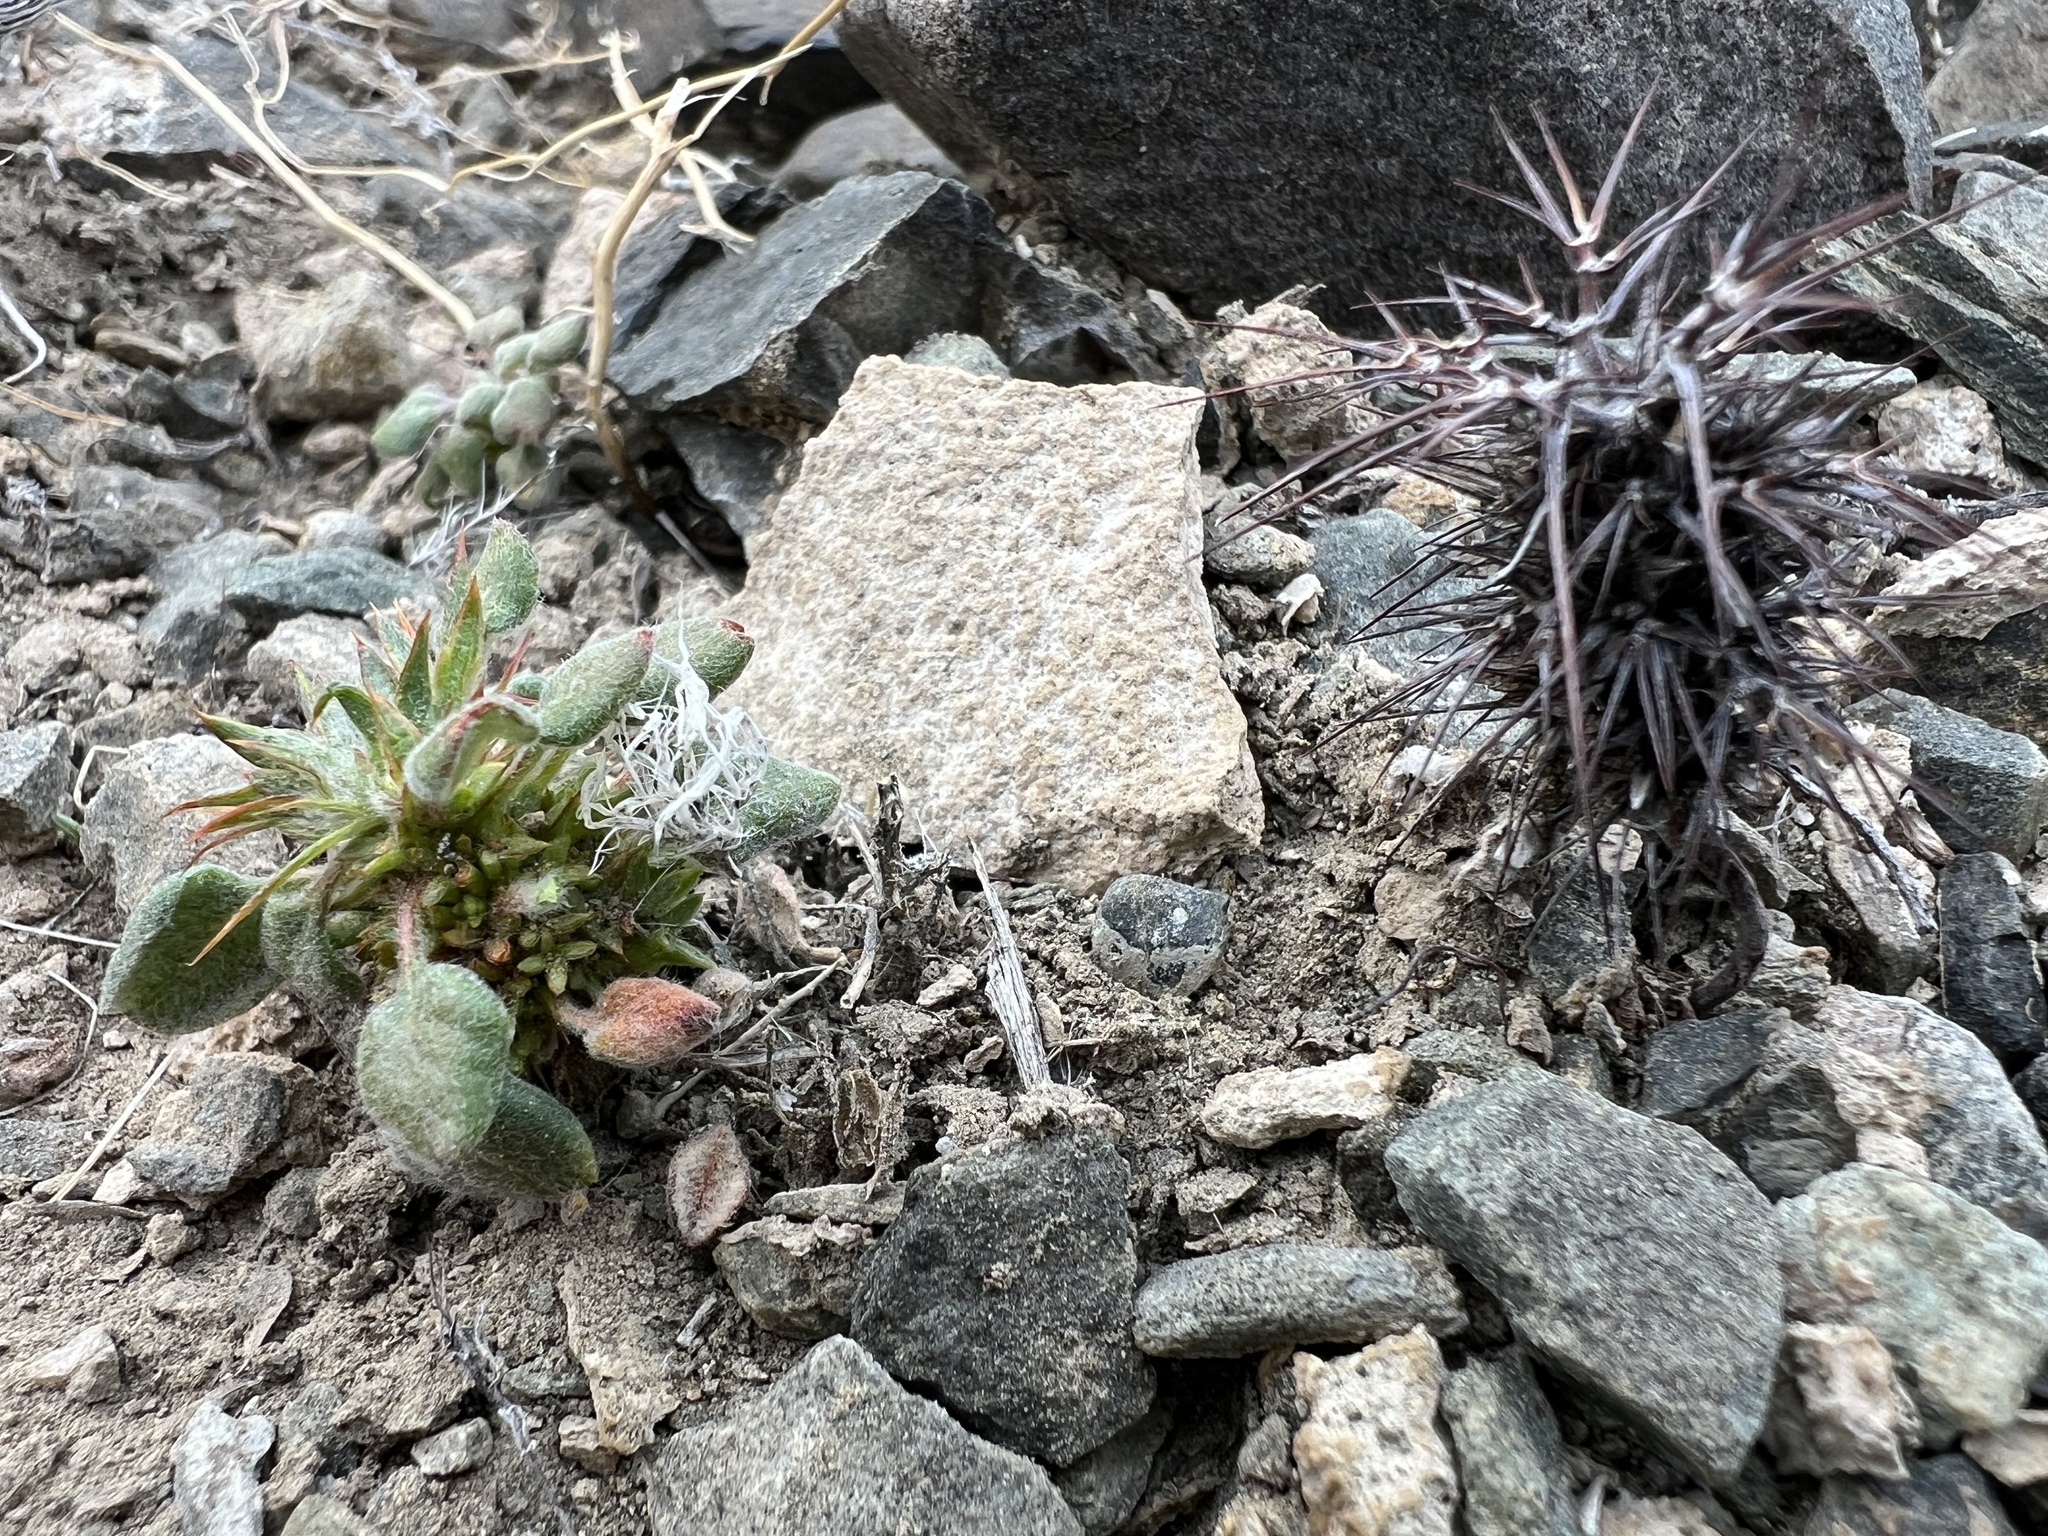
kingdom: Plantae
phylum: Tracheophyta
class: Magnoliopsida
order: Caryophyllales
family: Polygonaceae
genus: Chorizanthe
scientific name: Chorizanthe rigida
